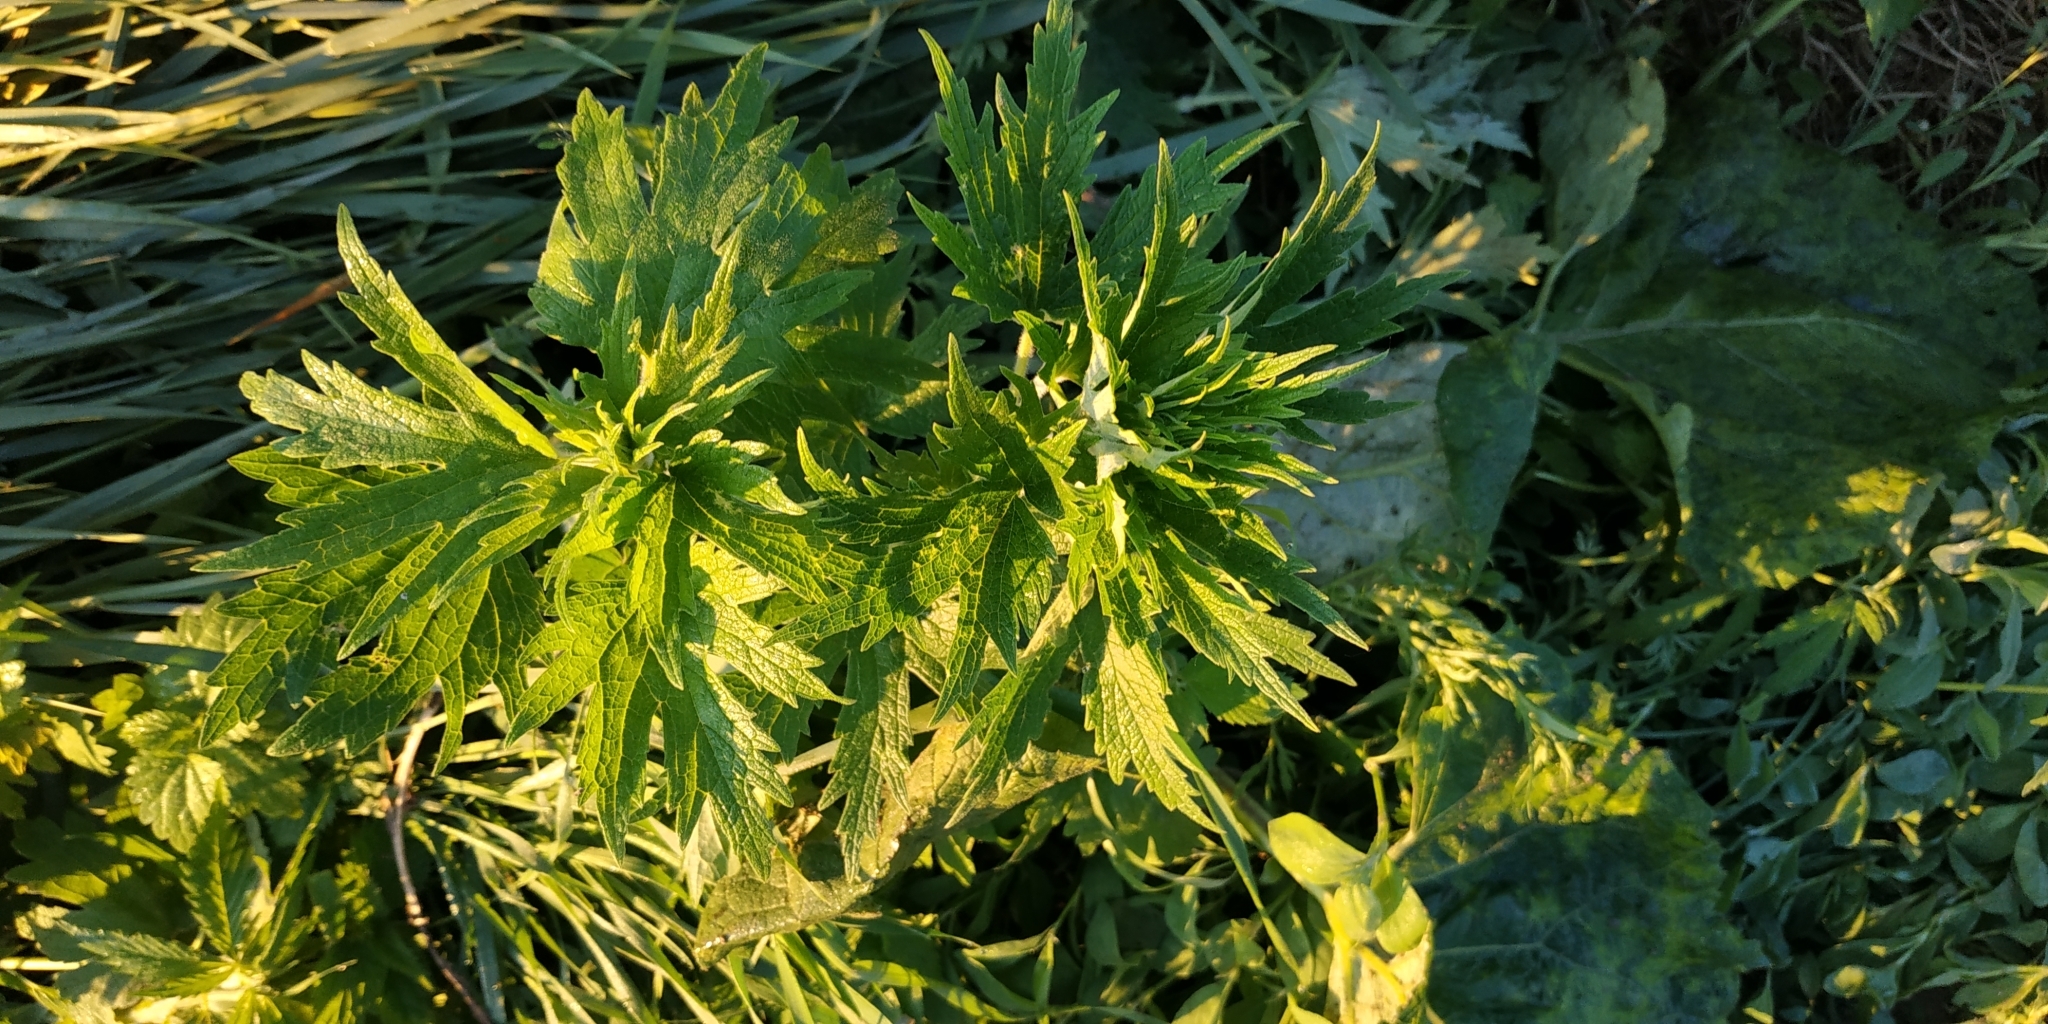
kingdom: Plantae
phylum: Tracheophyta
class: Magnoliopsida
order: Lamiales
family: Lamiaceae
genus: Leonurus
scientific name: Leonurus quinquelobatus
